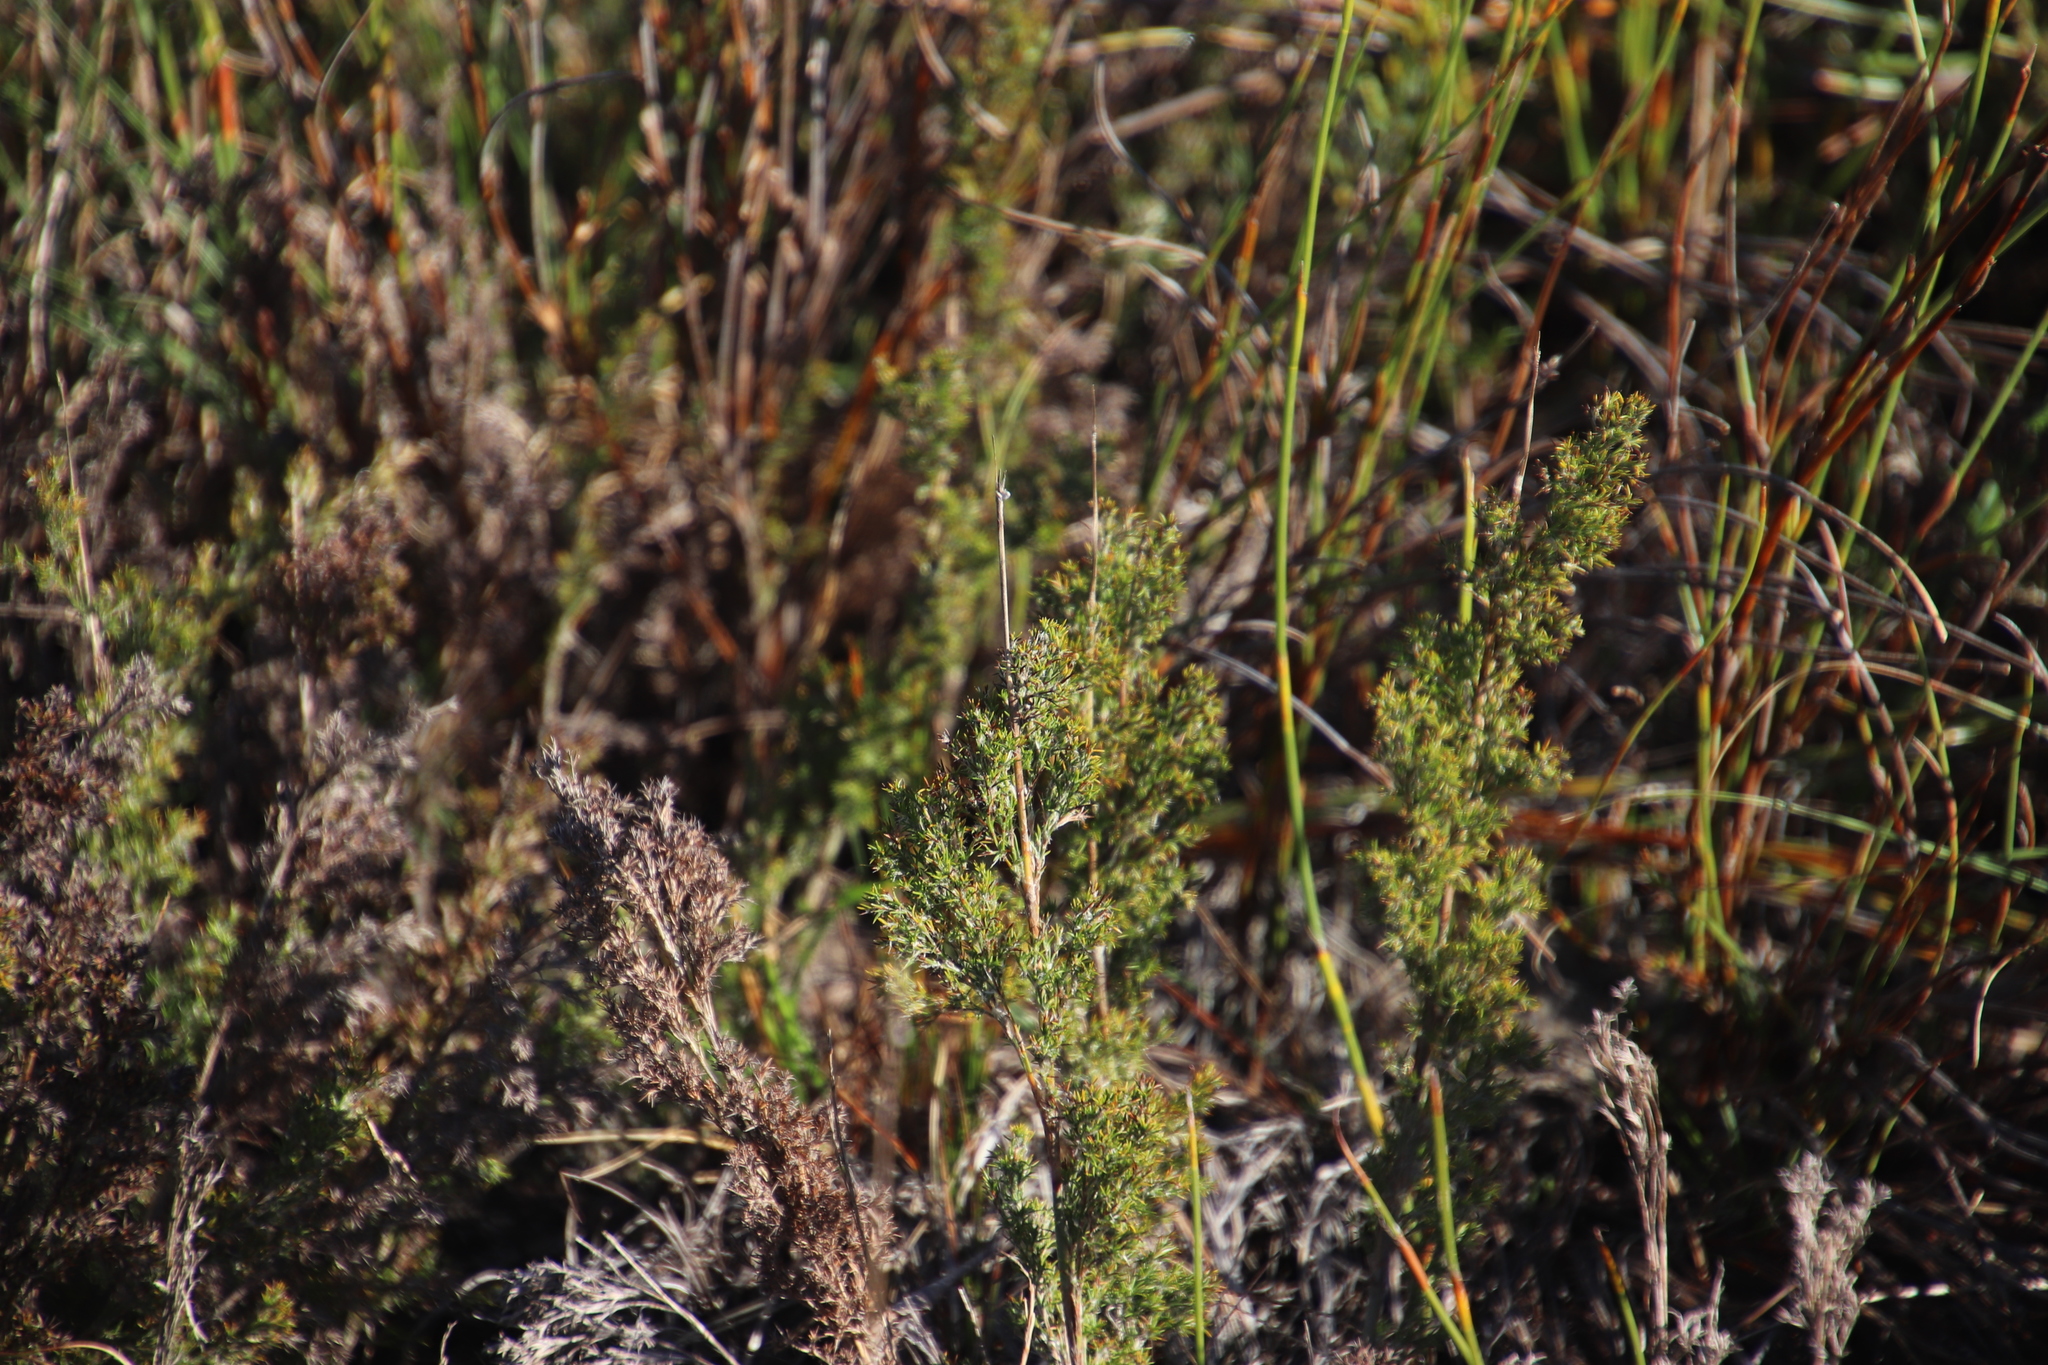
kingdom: Plantae
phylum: Tracheophyta
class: Liliopsida
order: Poales
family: Restionaceae
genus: Thamnochortus
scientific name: Thamnochortus fruticosus
